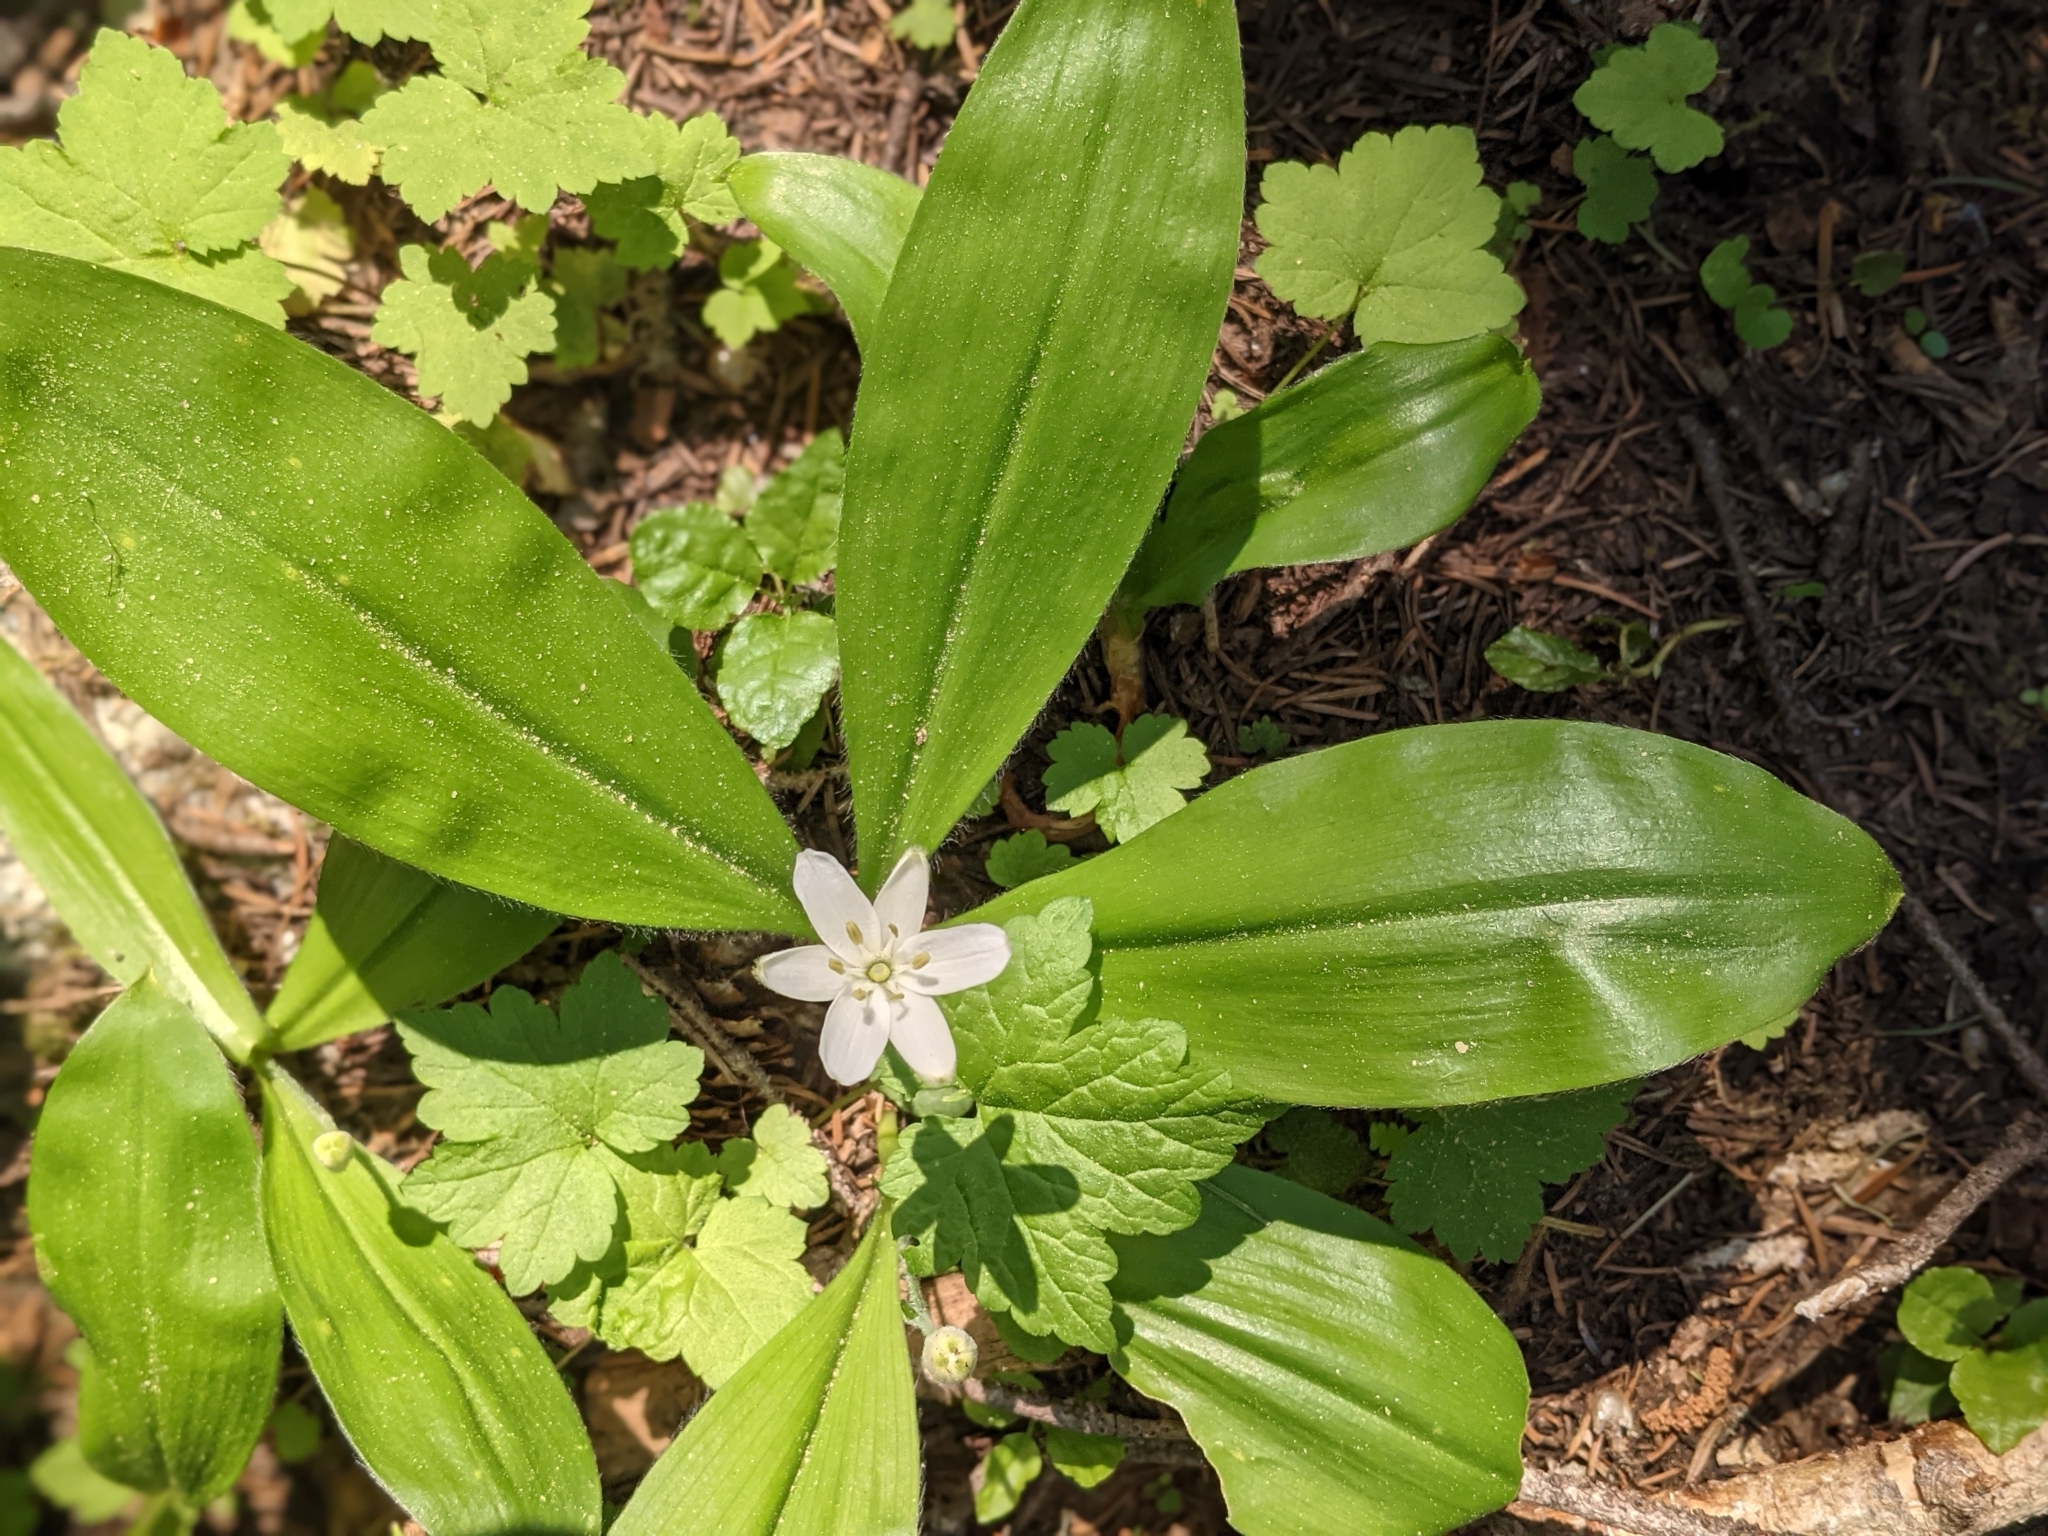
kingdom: Plantae
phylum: Tracheophyta
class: Liliopsida
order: Liliales
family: Liliaceae
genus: Clintonia
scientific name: Clintonia uniflora
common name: Queen's cup
